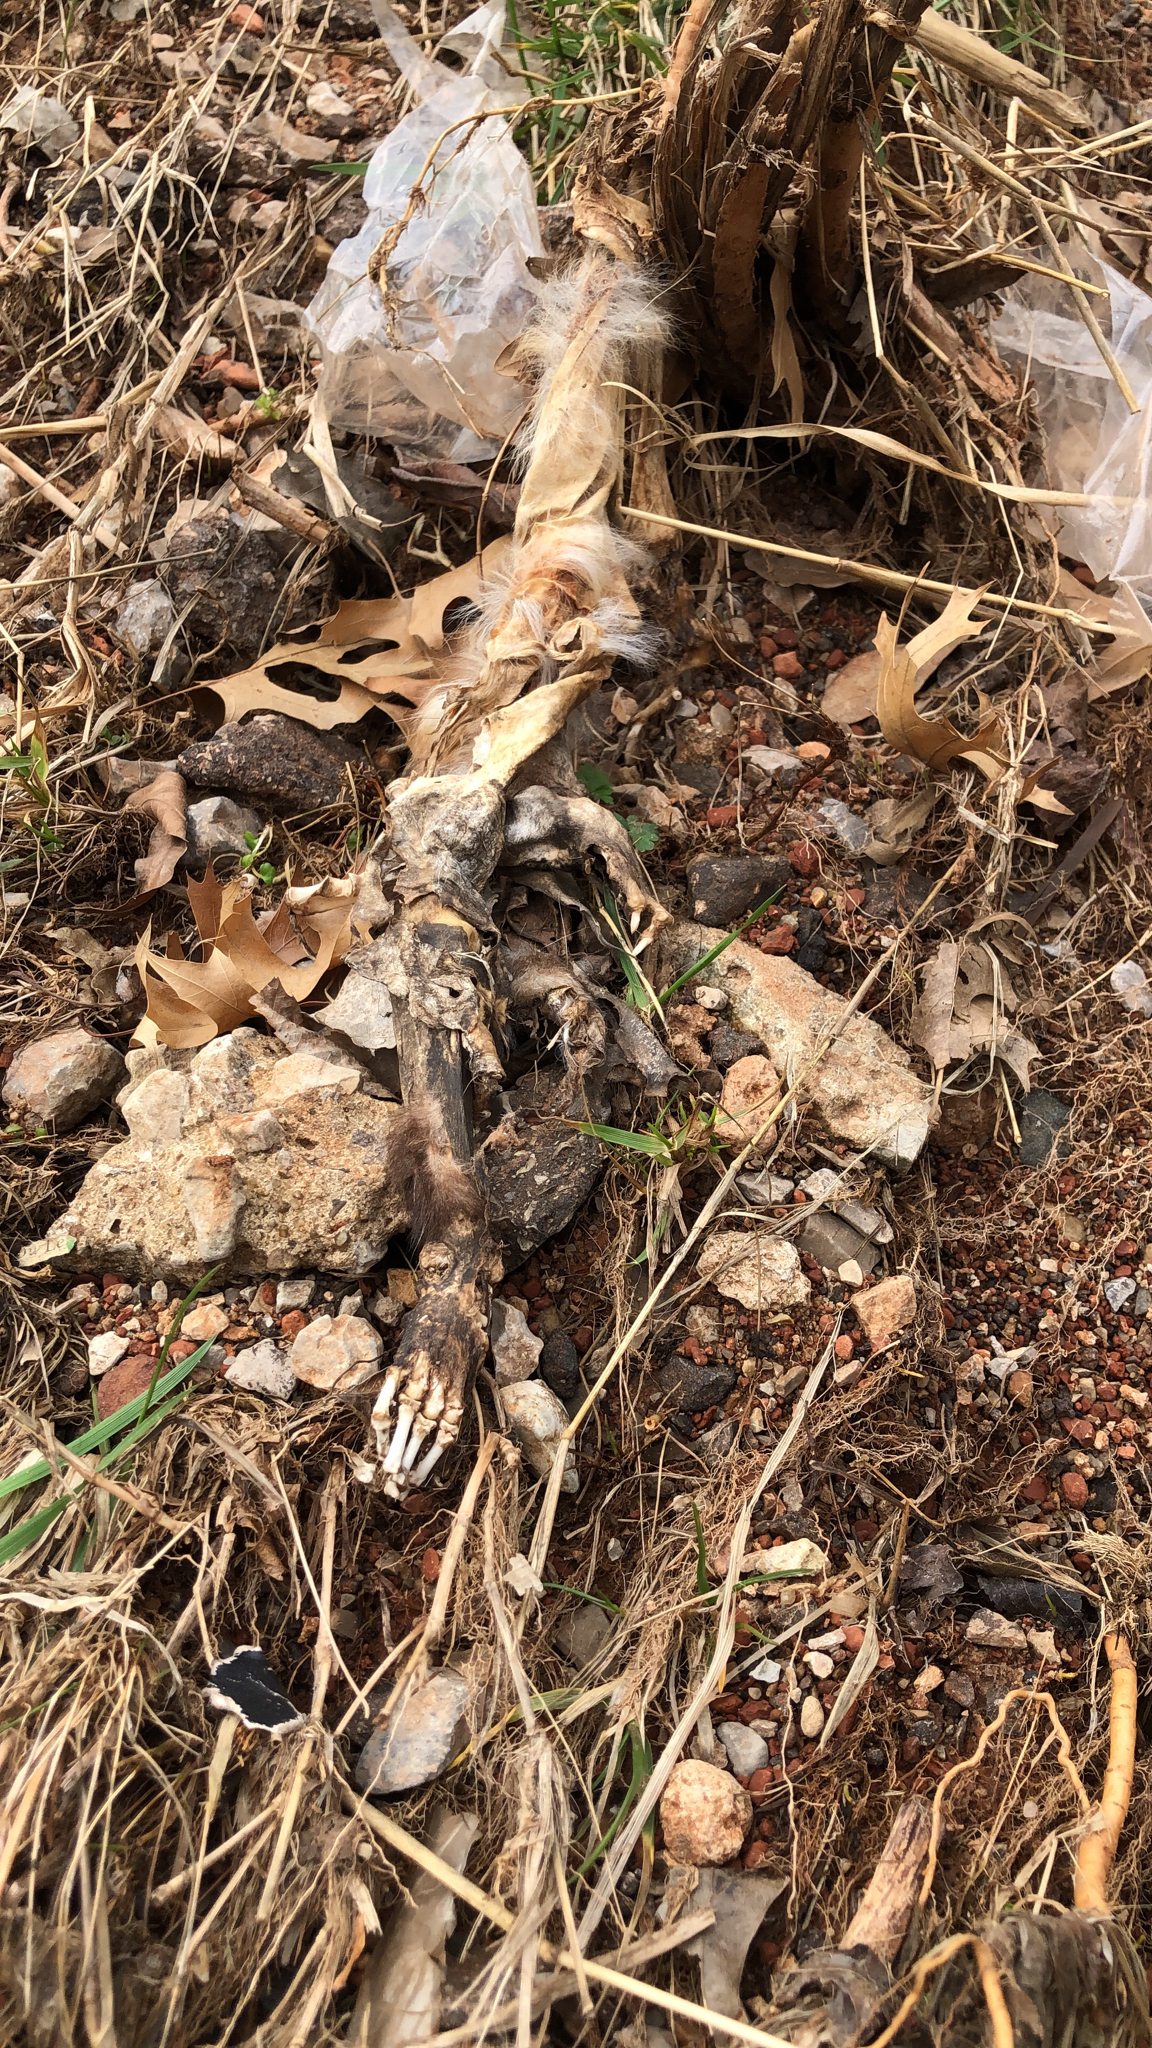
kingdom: Animalia
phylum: Chordata
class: Mammalia
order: Carnivora
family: Mephitidae
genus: Mephitis
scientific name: Mephitis mephitis
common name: Striped skunk
